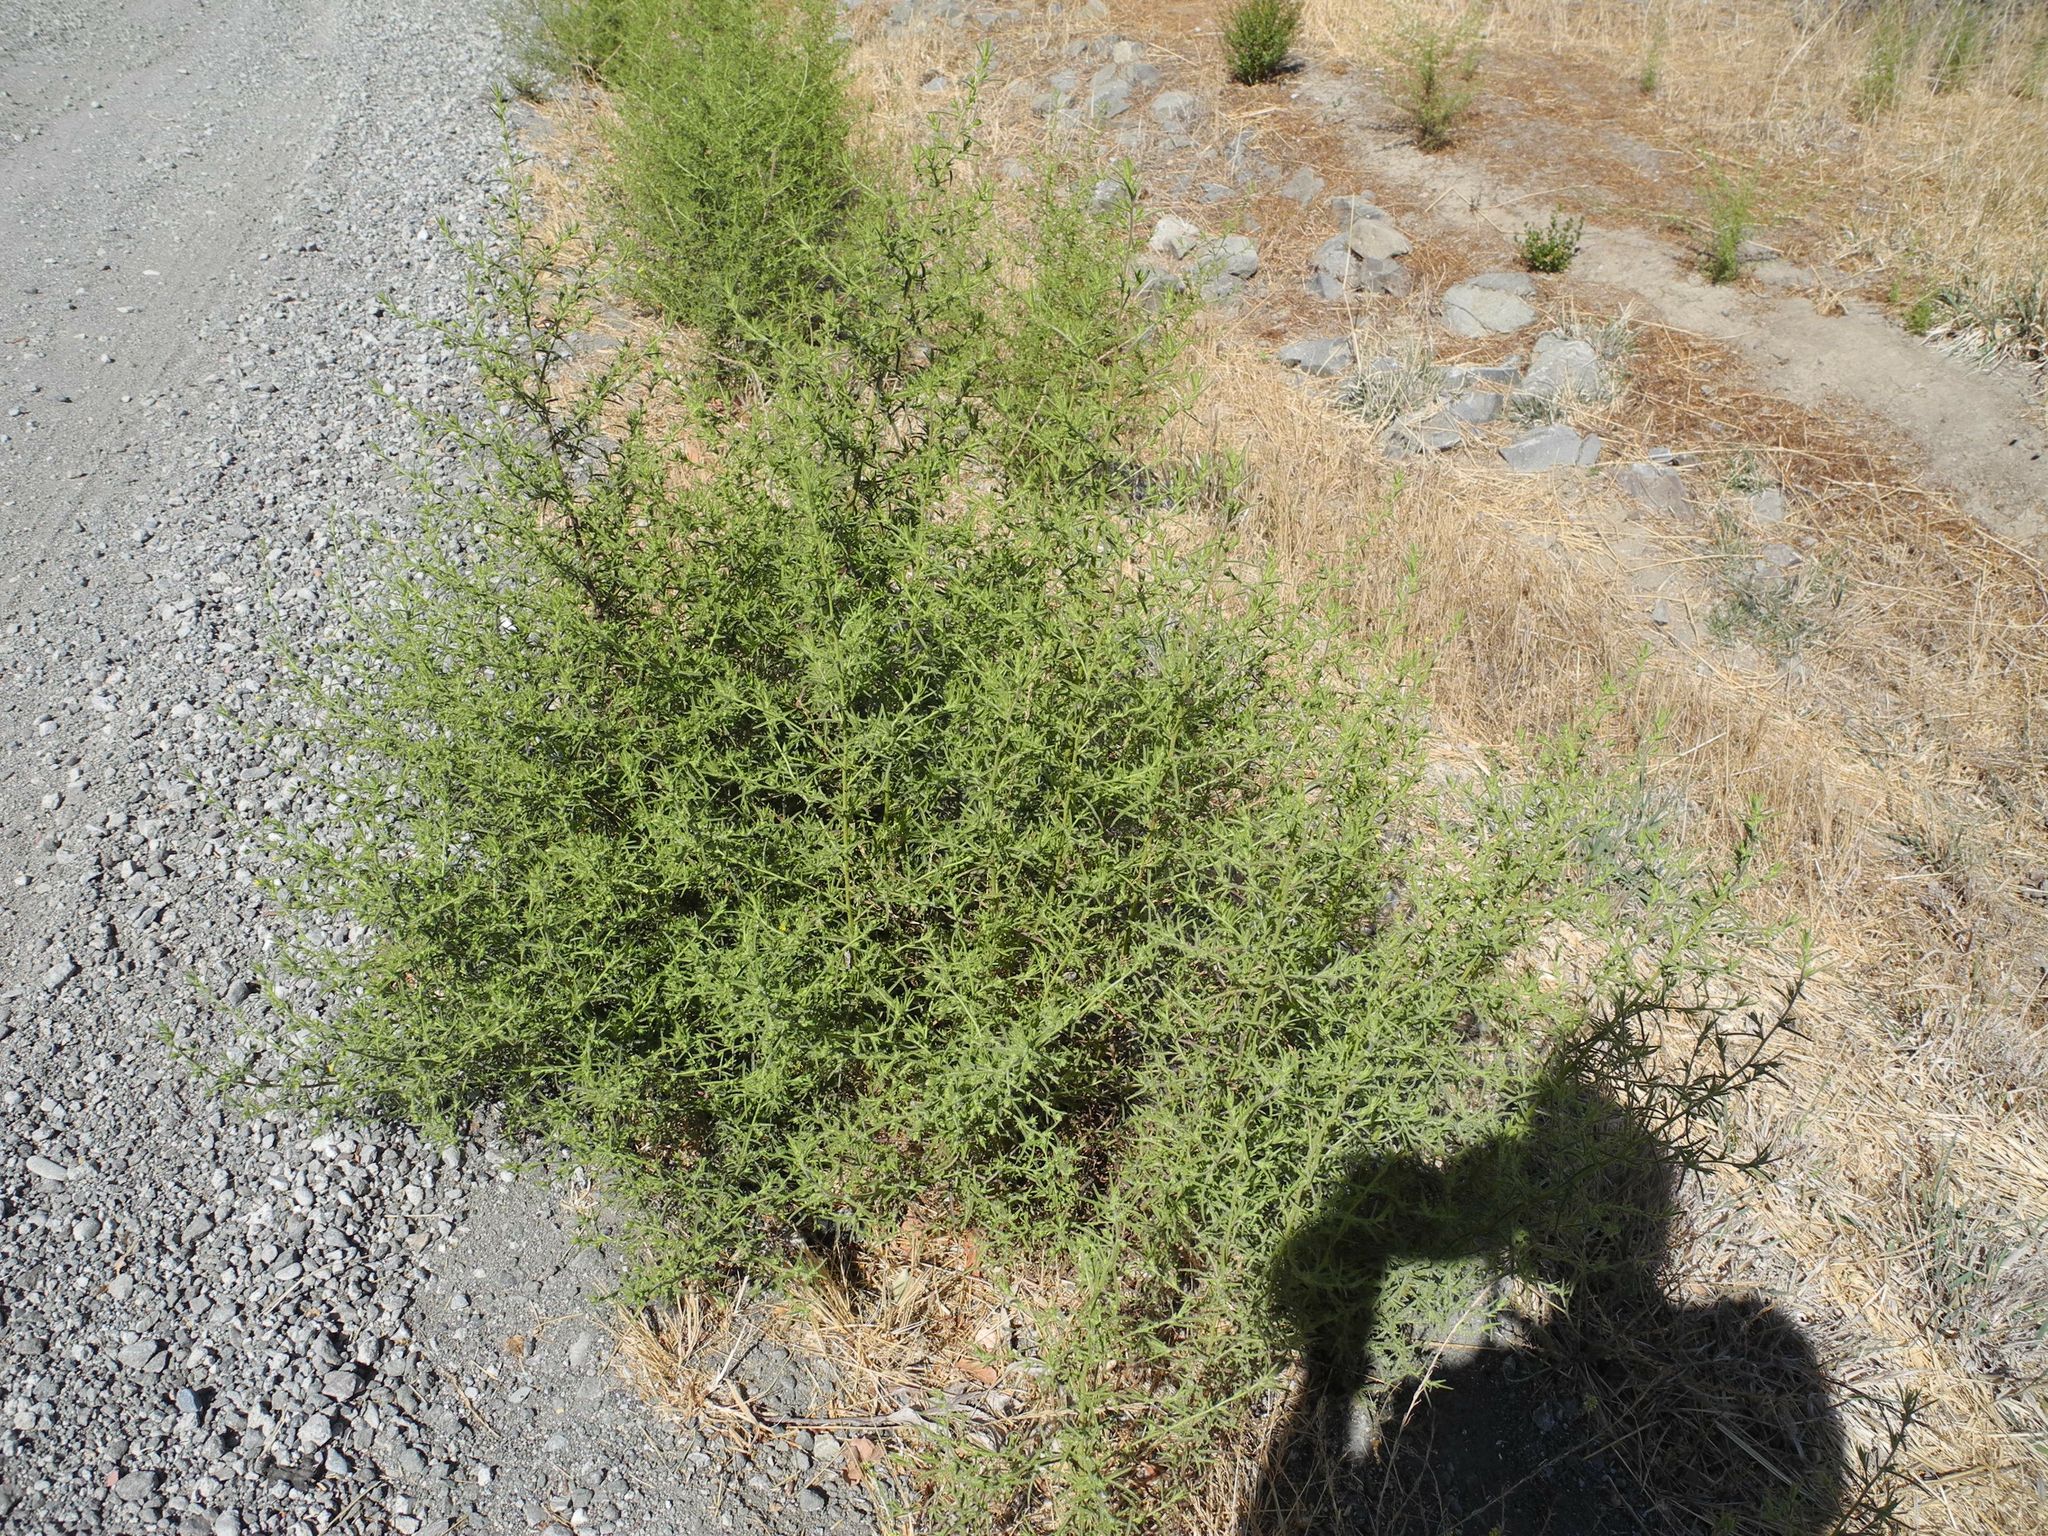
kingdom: Plantae
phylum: Tracheophyta
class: Magnoliopsida
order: Asterales
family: Asteraceae
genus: Dittrichia
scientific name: Dittrichia graveolens
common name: Stinking fleabane
